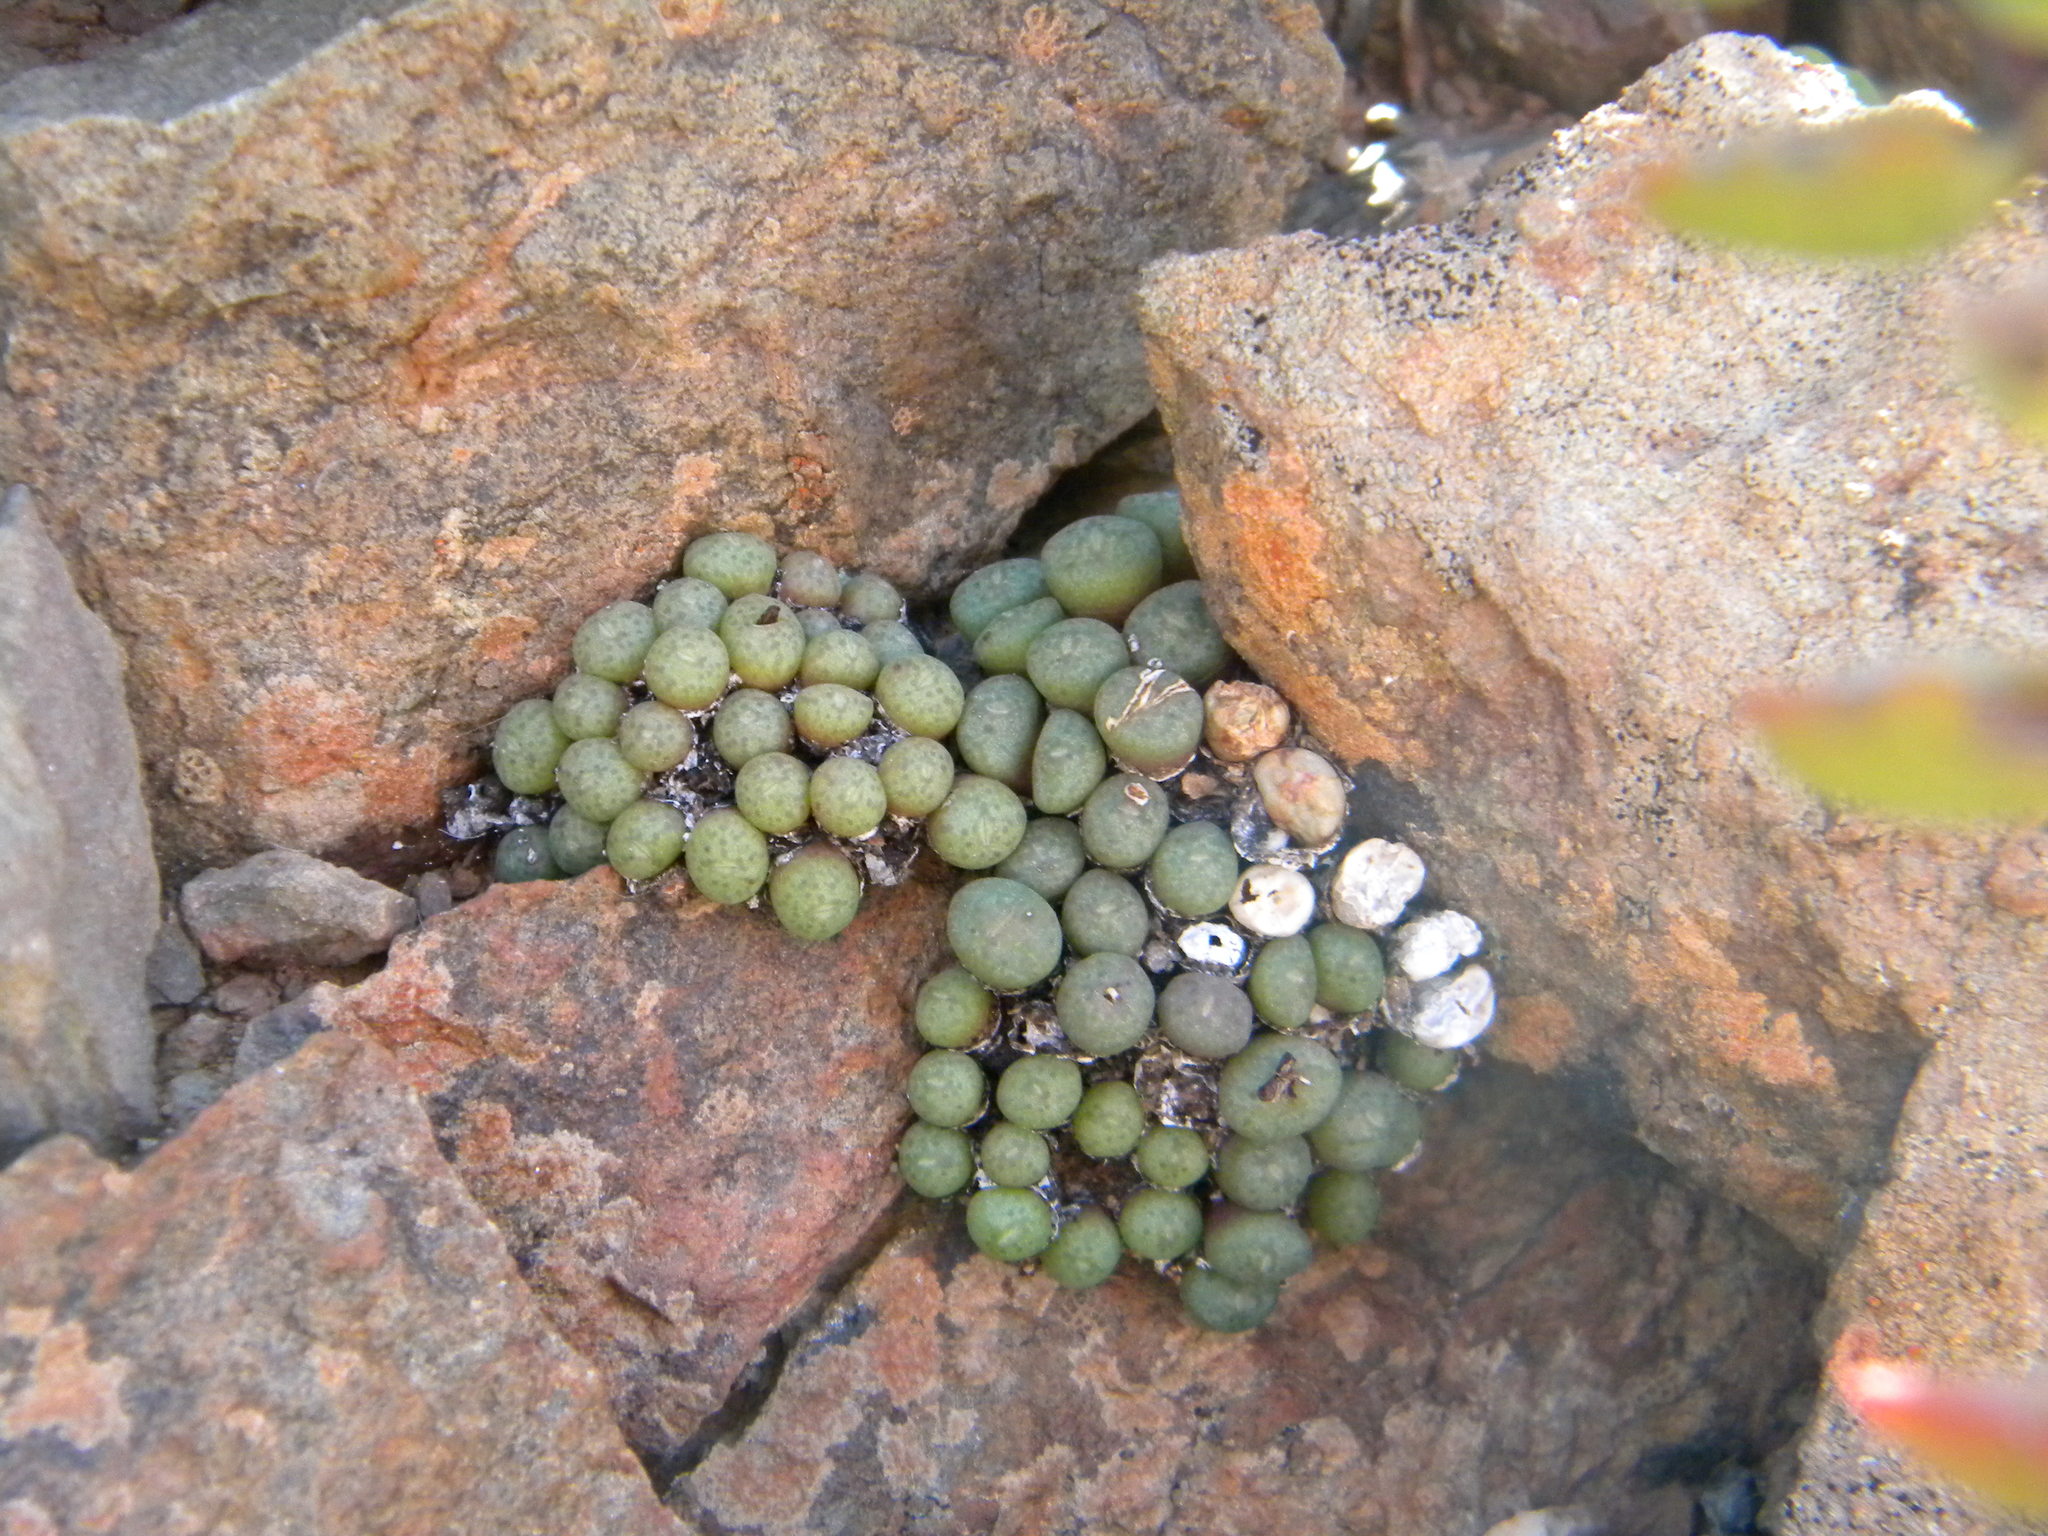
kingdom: Plantae
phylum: Tracheophyta
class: Magnoliopsida
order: Caryophyllales
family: Aizoaceae
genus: Conophytum
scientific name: Conophytum truncatum
